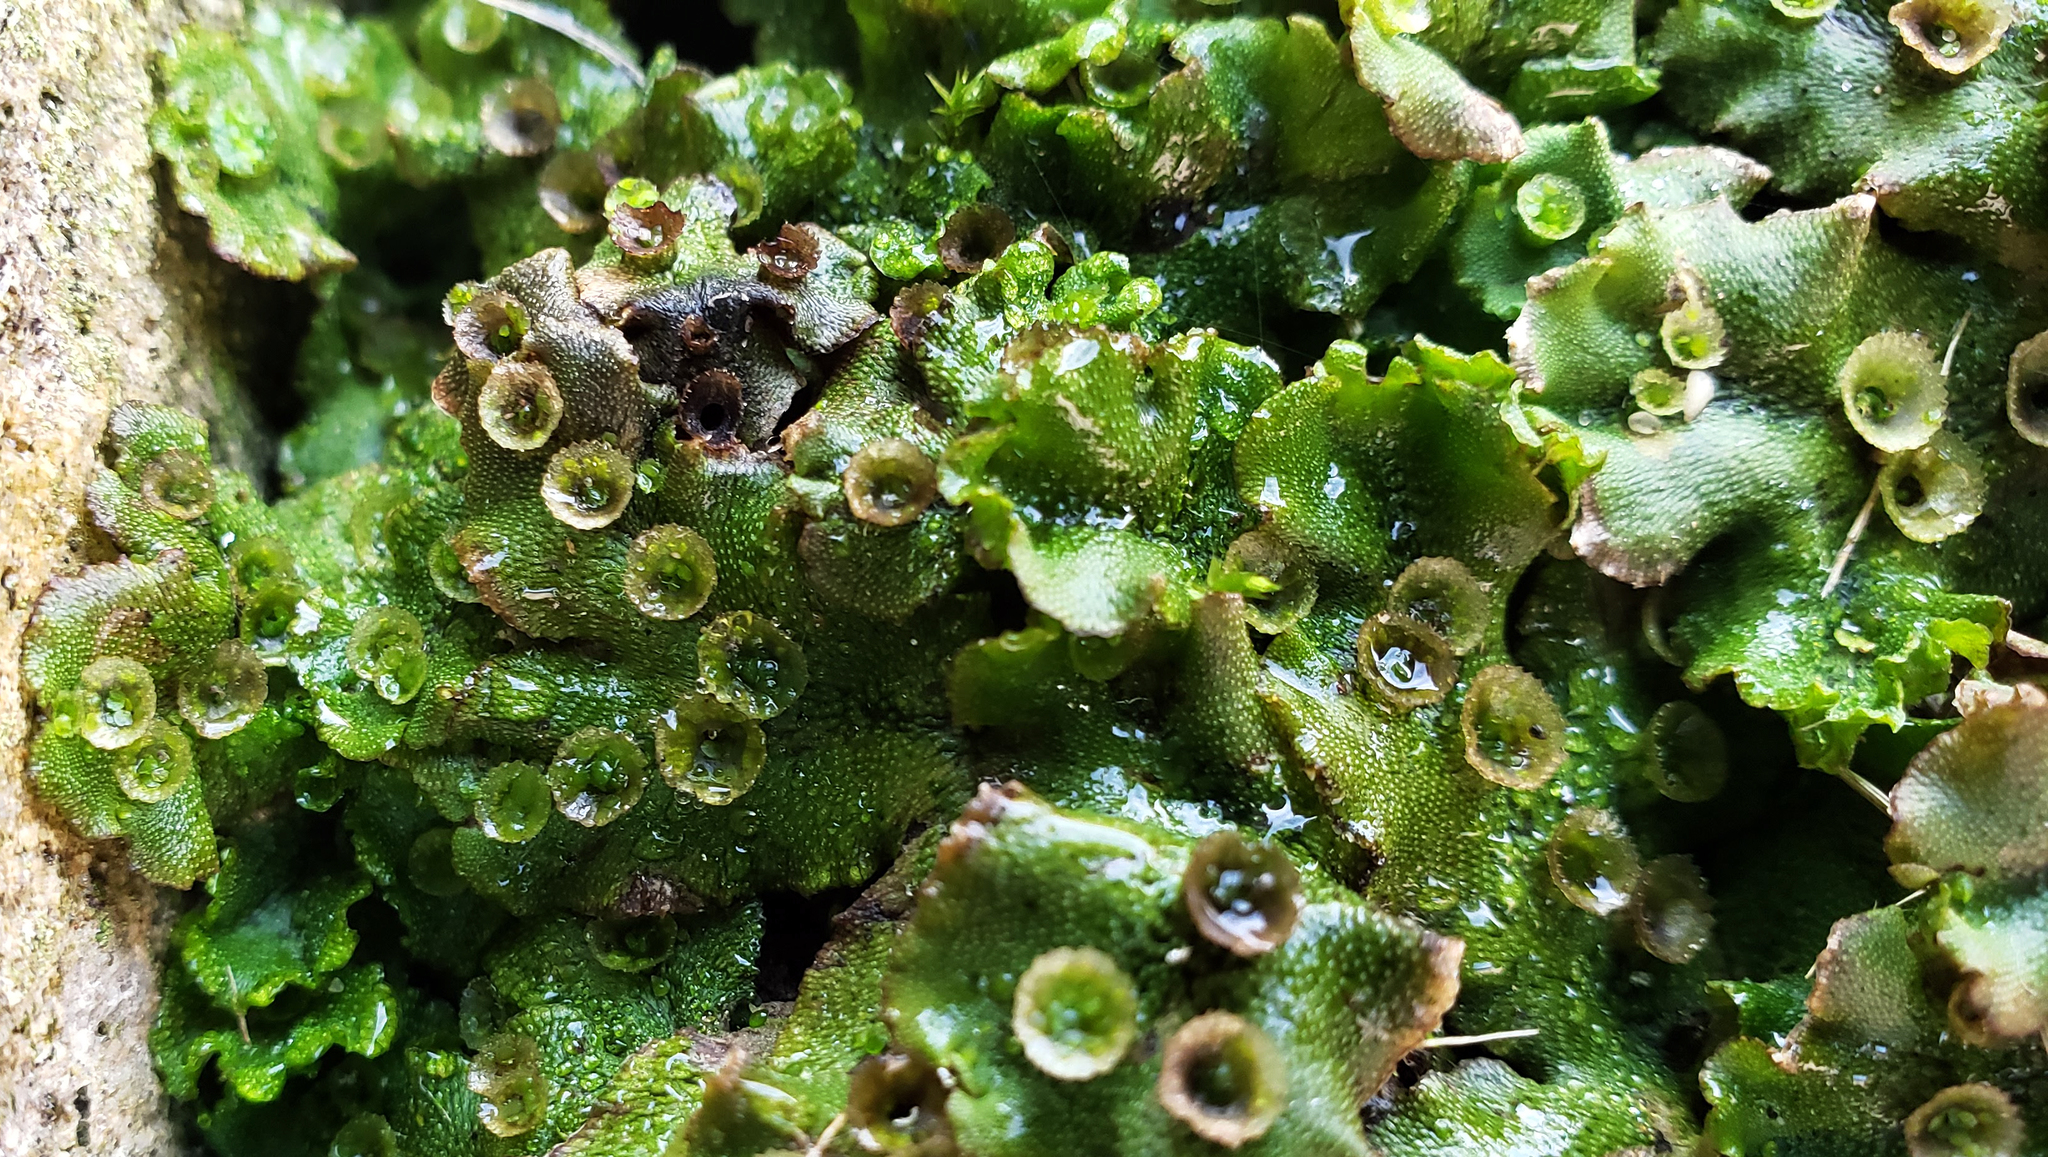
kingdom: Plantae
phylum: Marchantiophyta
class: Marchantiopsida
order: Marchantiales
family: Marchantiaceae
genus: Marchantia
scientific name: Marchantia polymorpha
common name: Common liverwort
